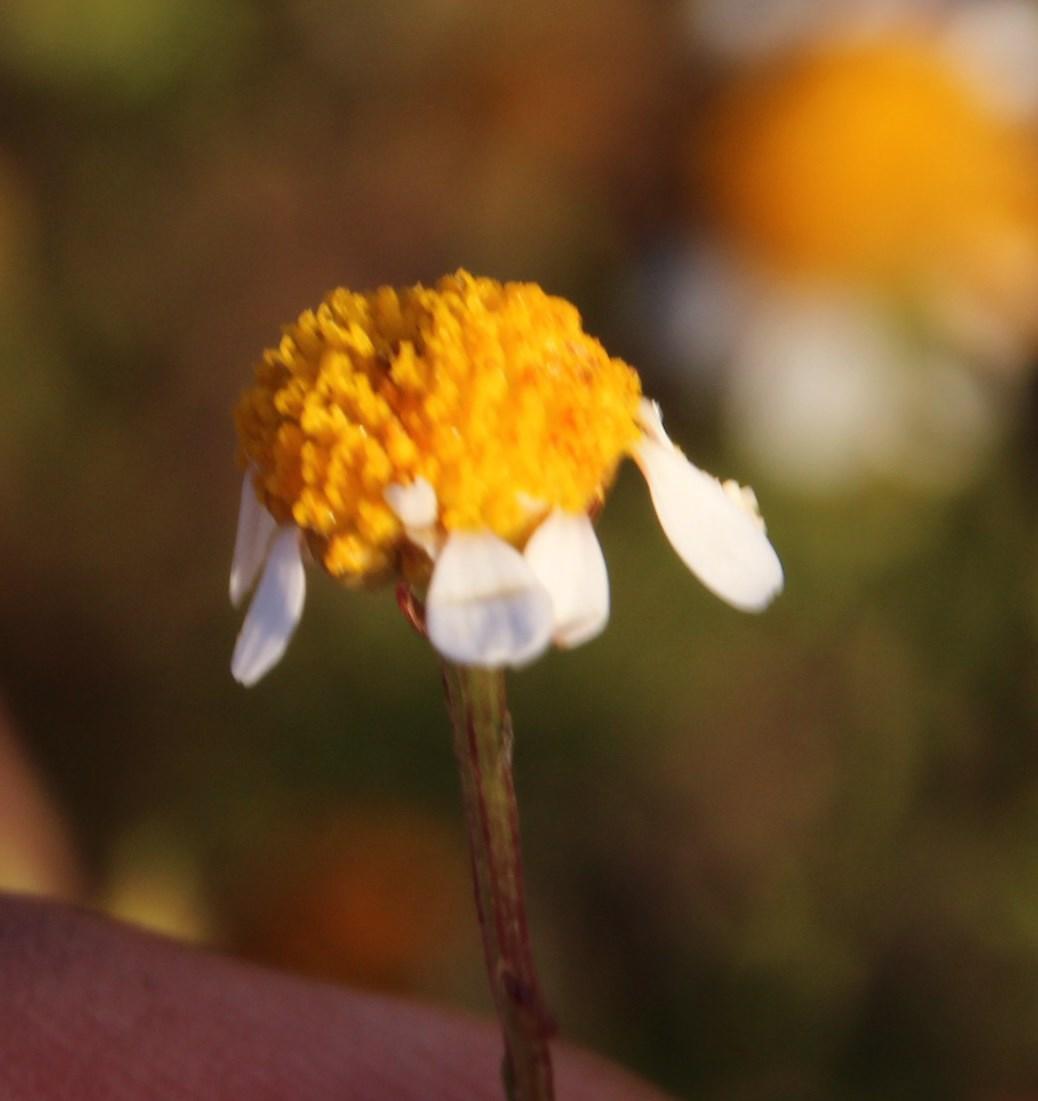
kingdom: Plantae
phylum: Tracheophyta
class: Magnoliopsida
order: Asterales
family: Asteraceae
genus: Cymbopappus
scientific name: Cymbopappus adenosolen
